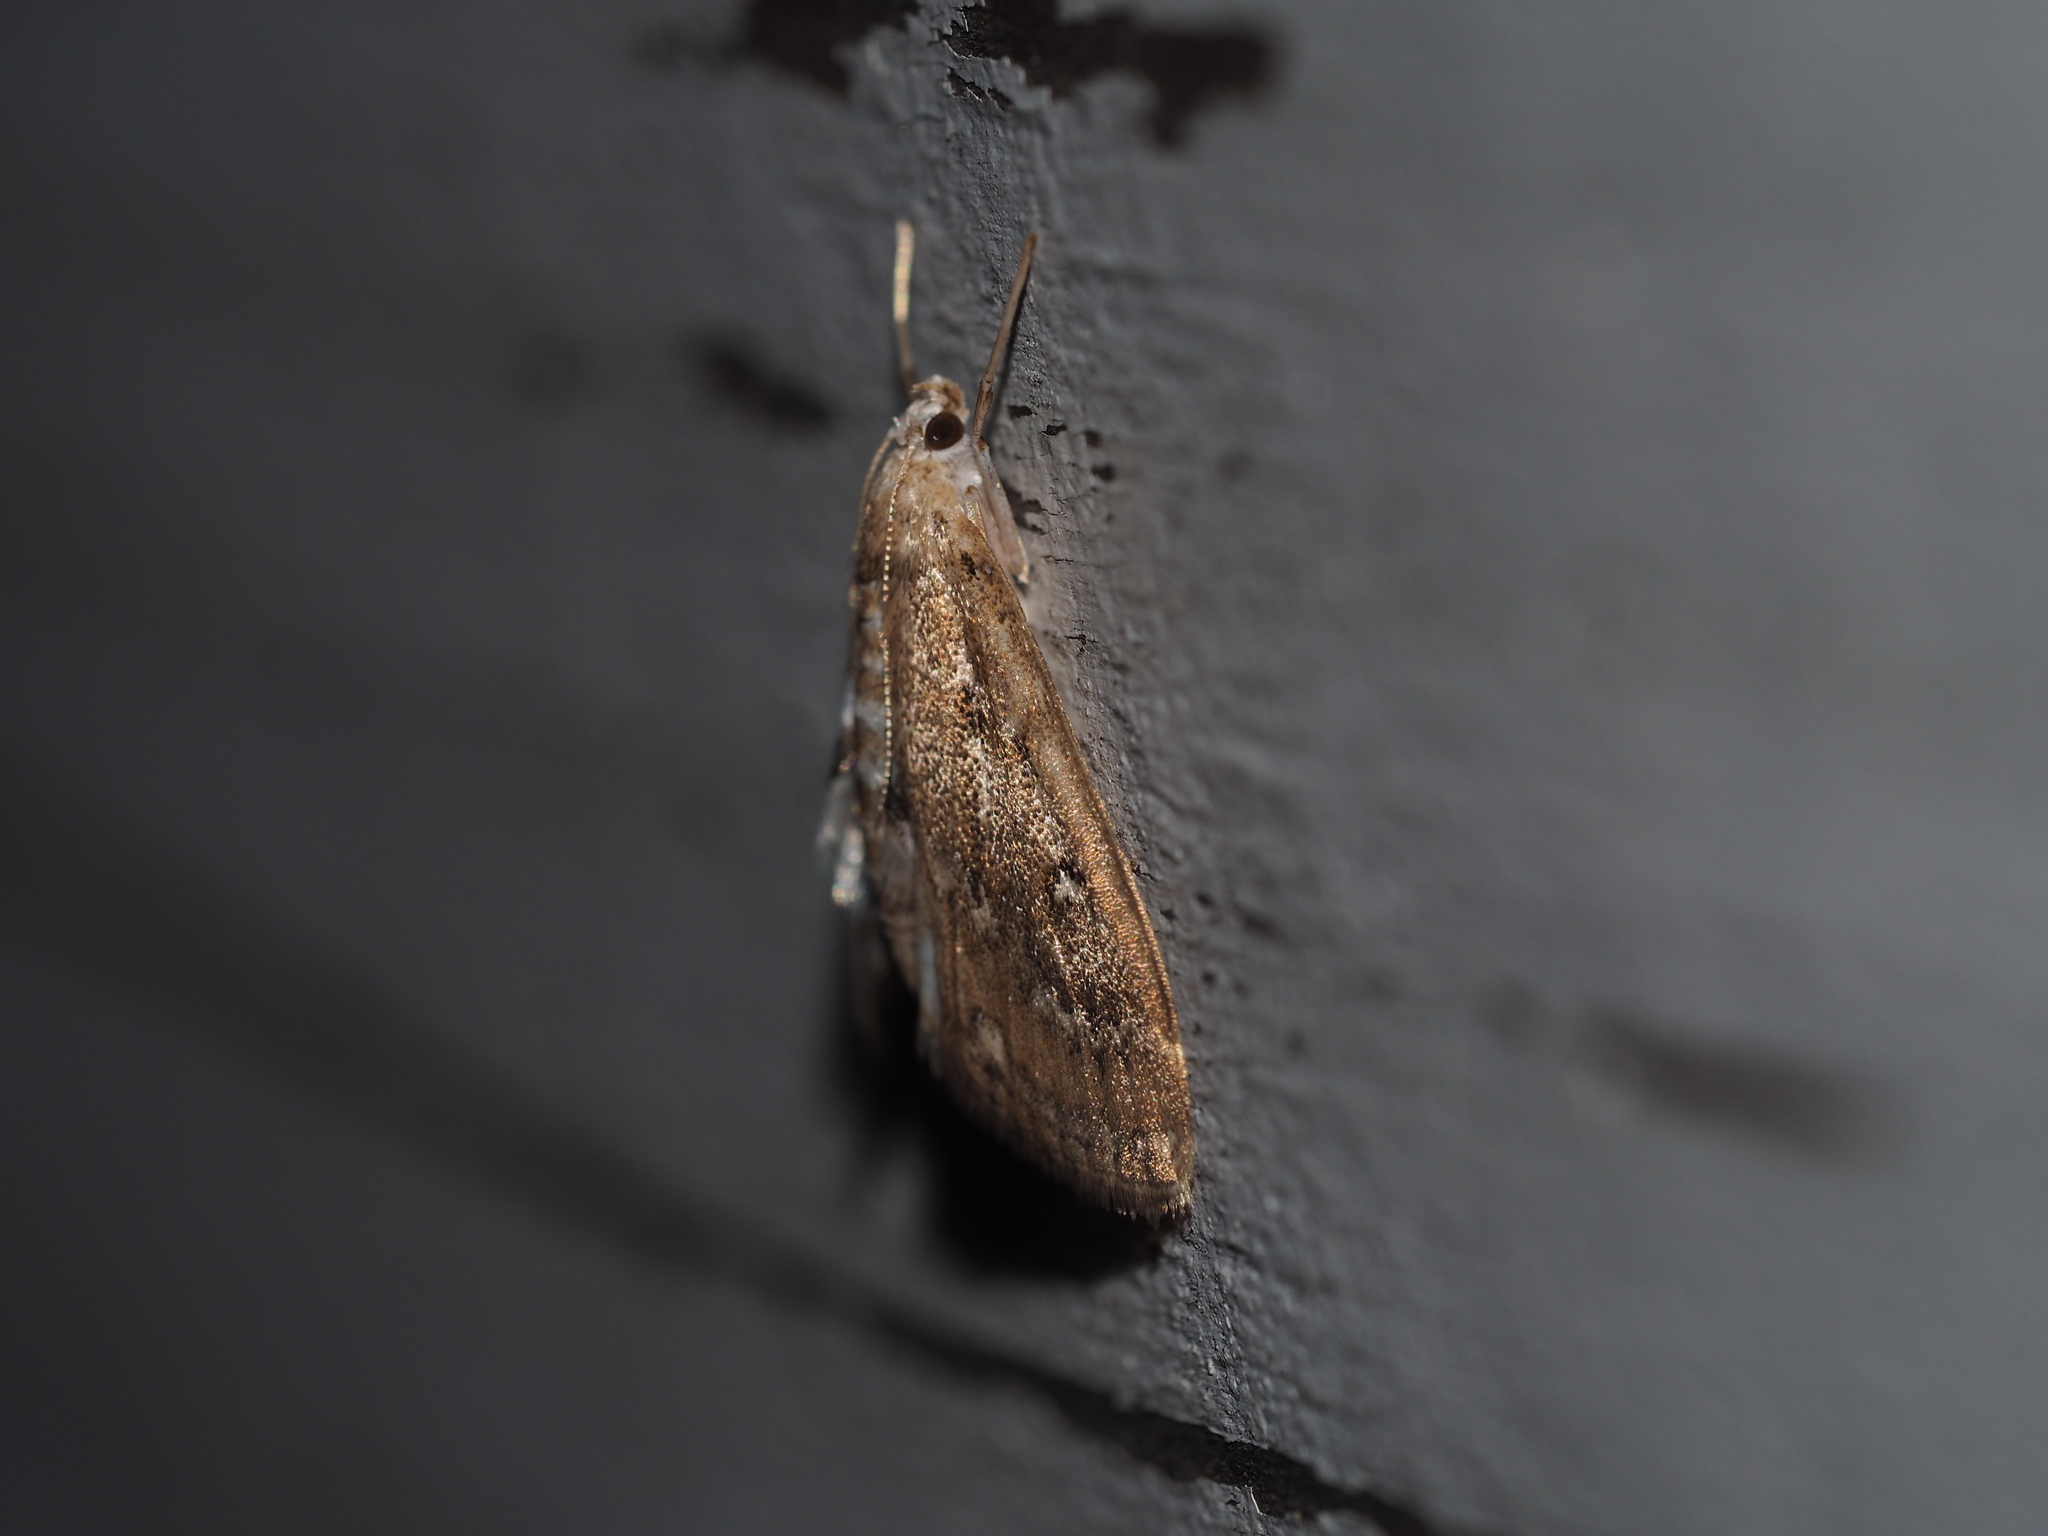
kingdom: Animalia
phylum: Arthropoda
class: Insecta
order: Lepidoptera
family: Crambidae
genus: Parapoynx
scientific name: Parapoynx stratiotata
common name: Ringed china-mark
